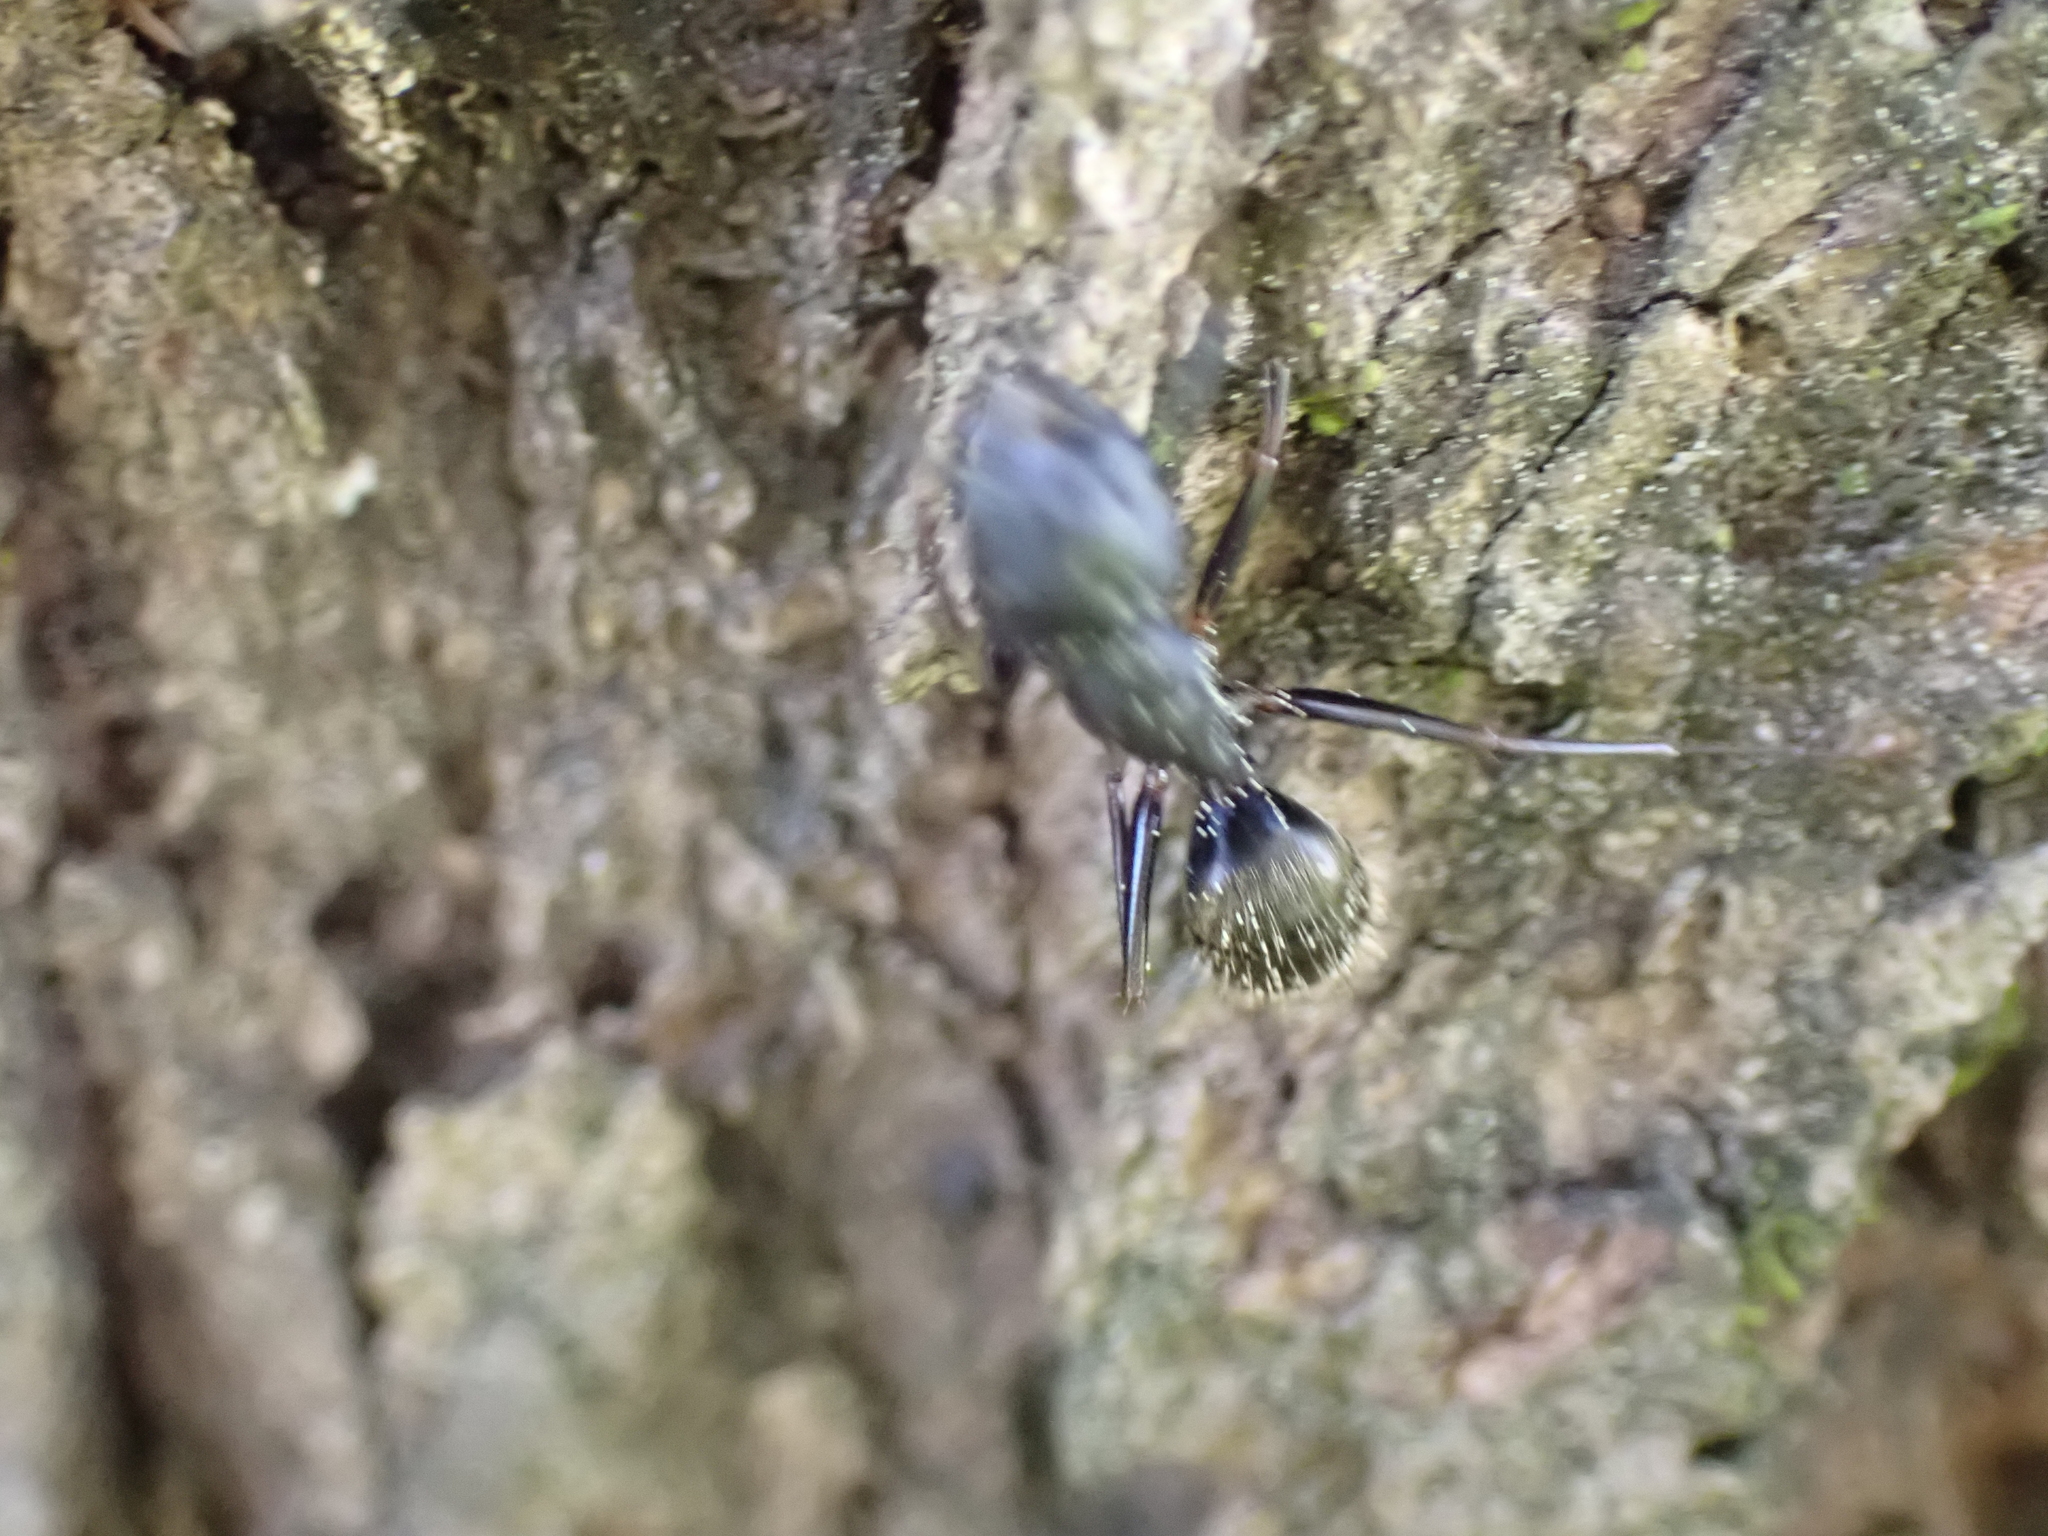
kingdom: Animalia
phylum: Arthropoda
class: Insecta
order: Hymenoptera
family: Formicidae
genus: Camponotus
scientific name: Camponotus pennsylvanicus
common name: Black carpenter ant
